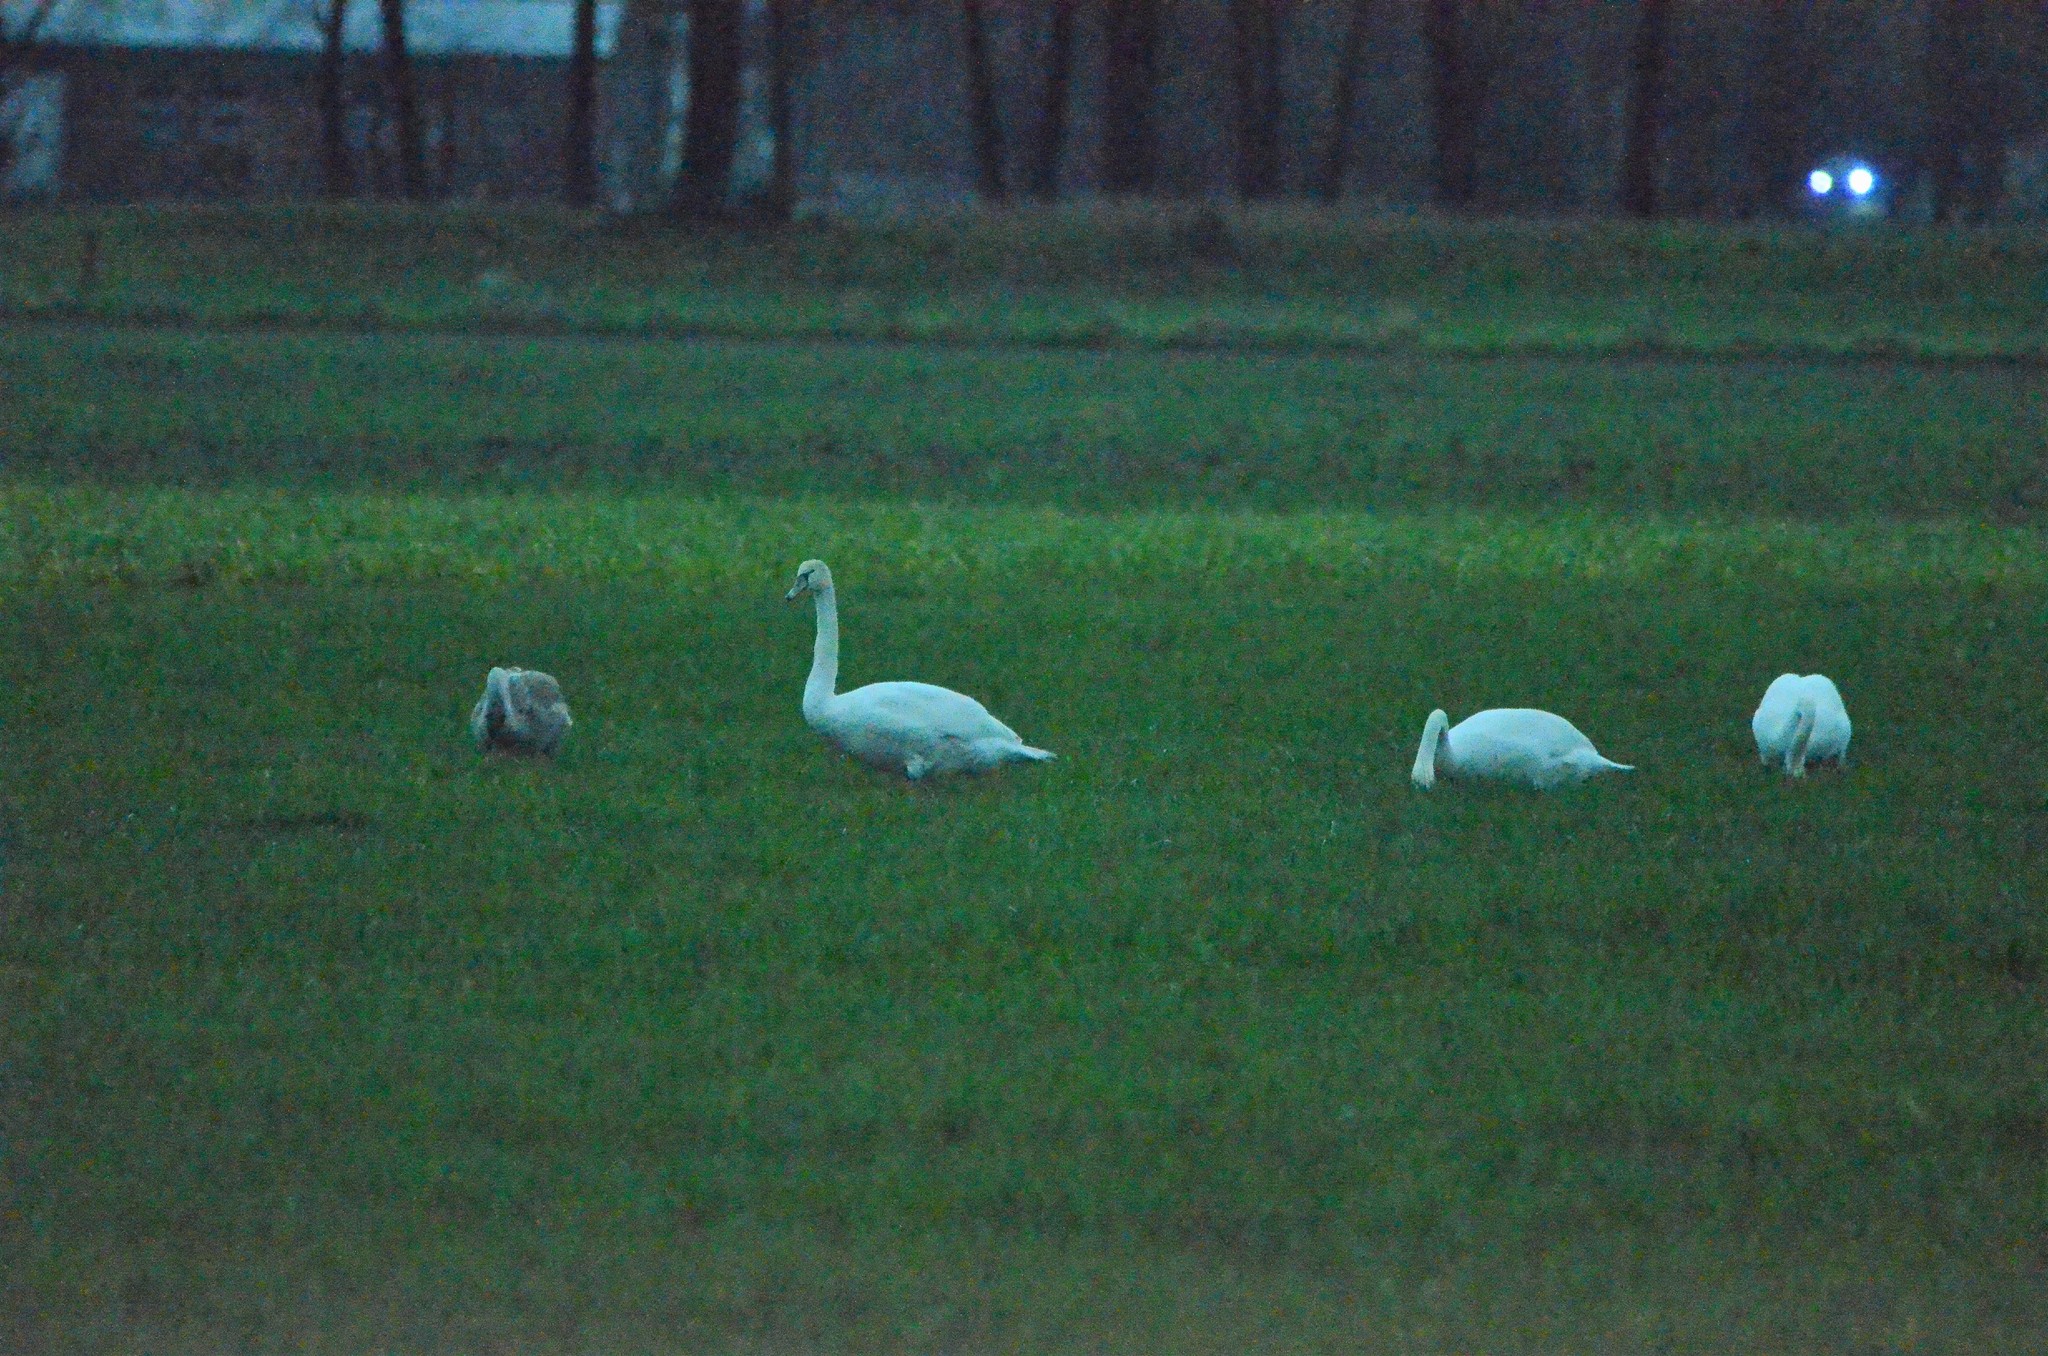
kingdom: Animalia
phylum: Chordata
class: Aves
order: Anseriformes
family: Anatidae
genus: Cygnus
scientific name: Cygnus olor
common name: Mute swan
